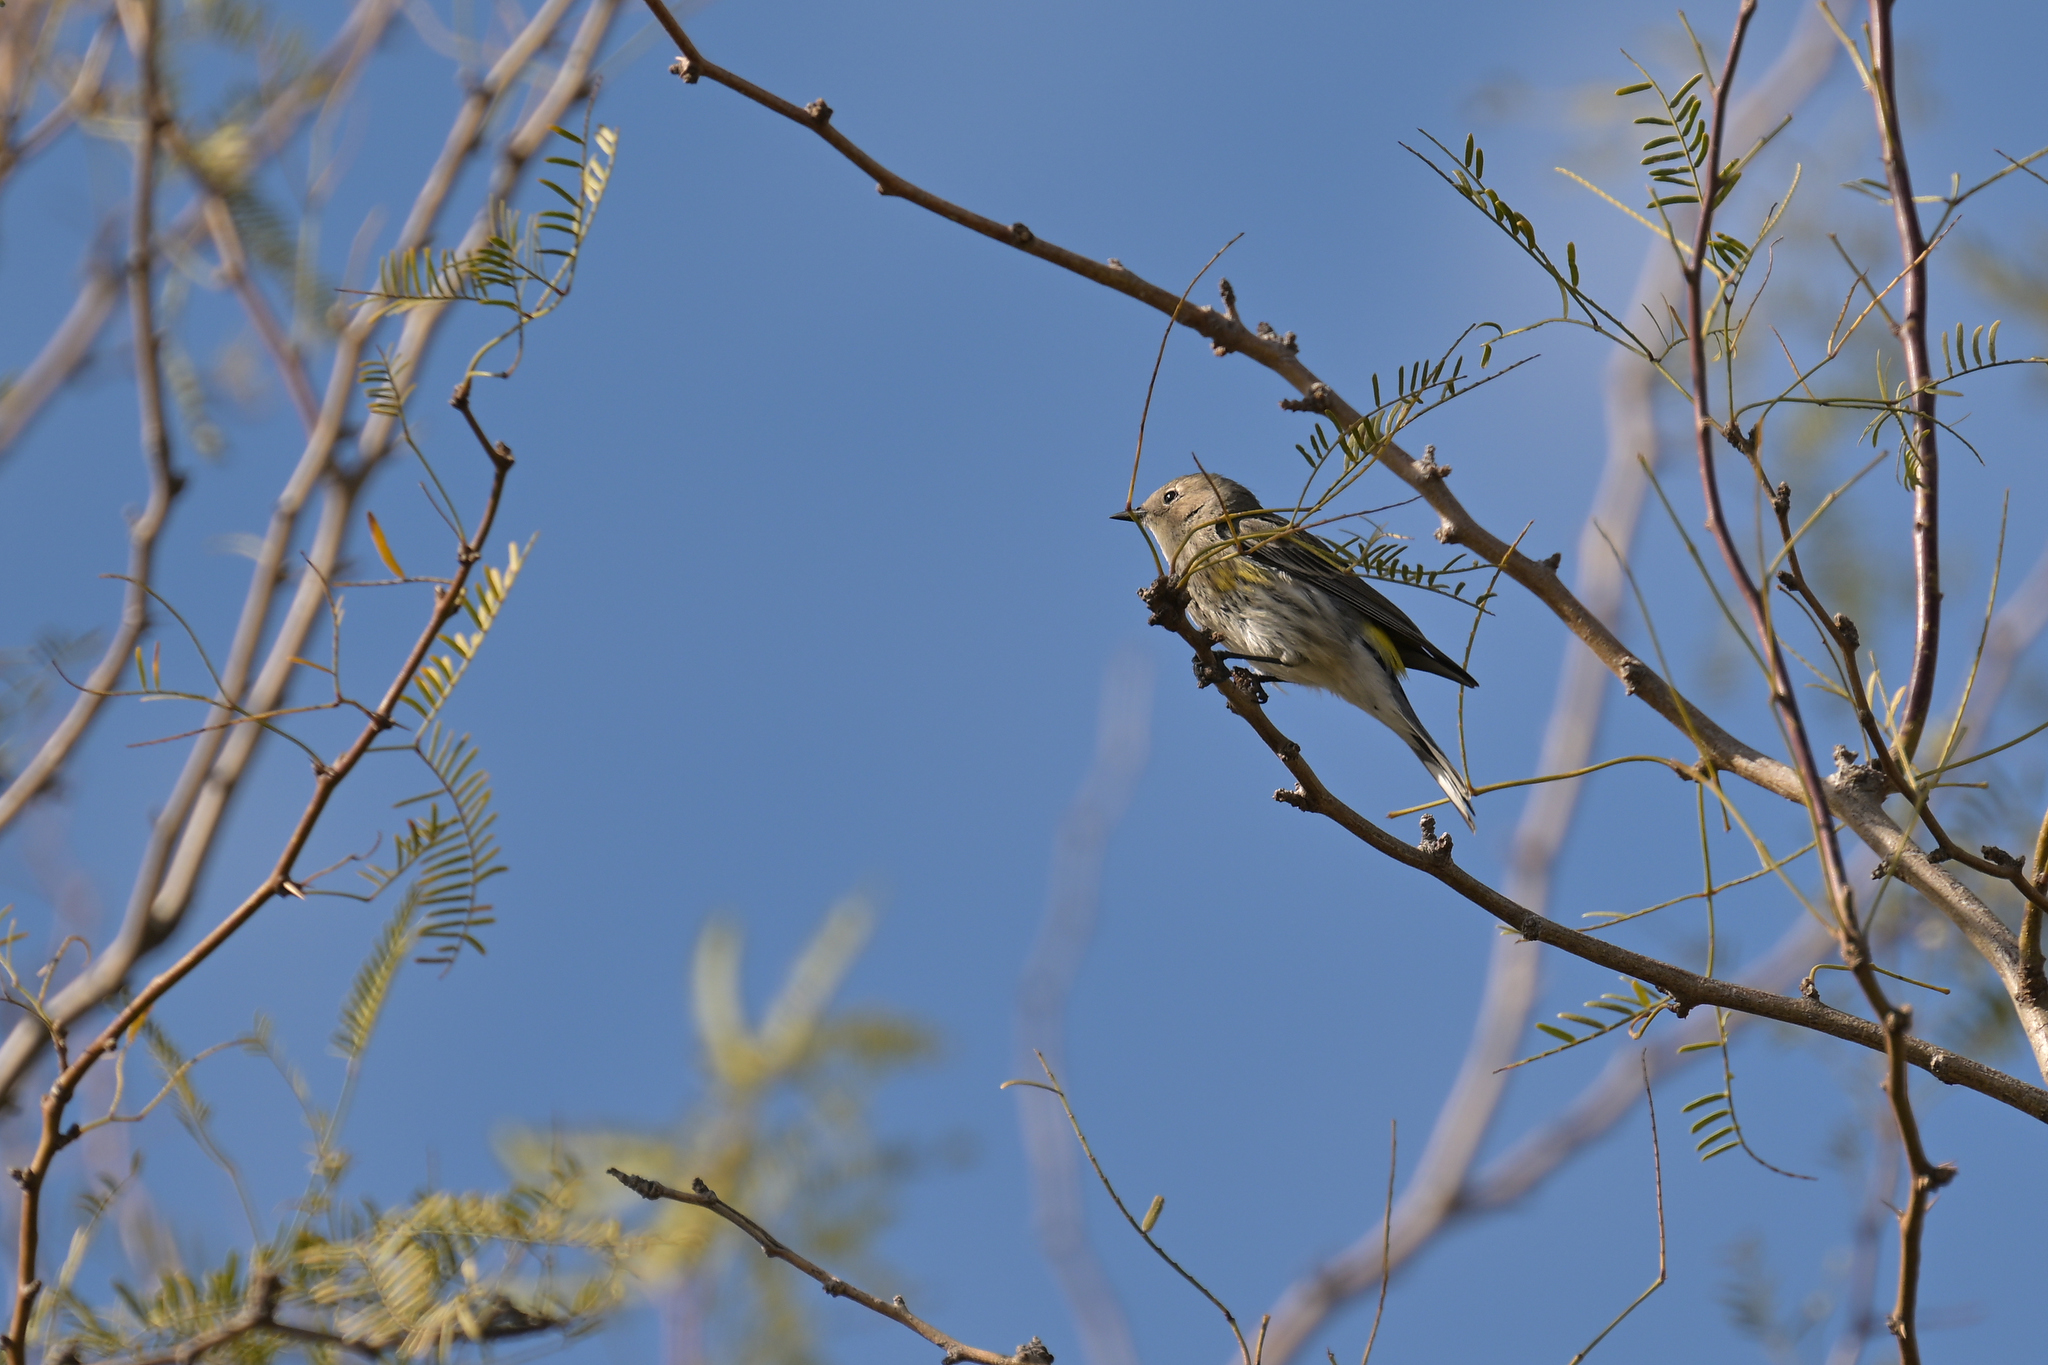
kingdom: Animalia
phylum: Chordata
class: Aves
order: Passeriformes
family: Parulidae
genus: Setophaga
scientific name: Setophaga coronata
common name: Myrtle warbler
